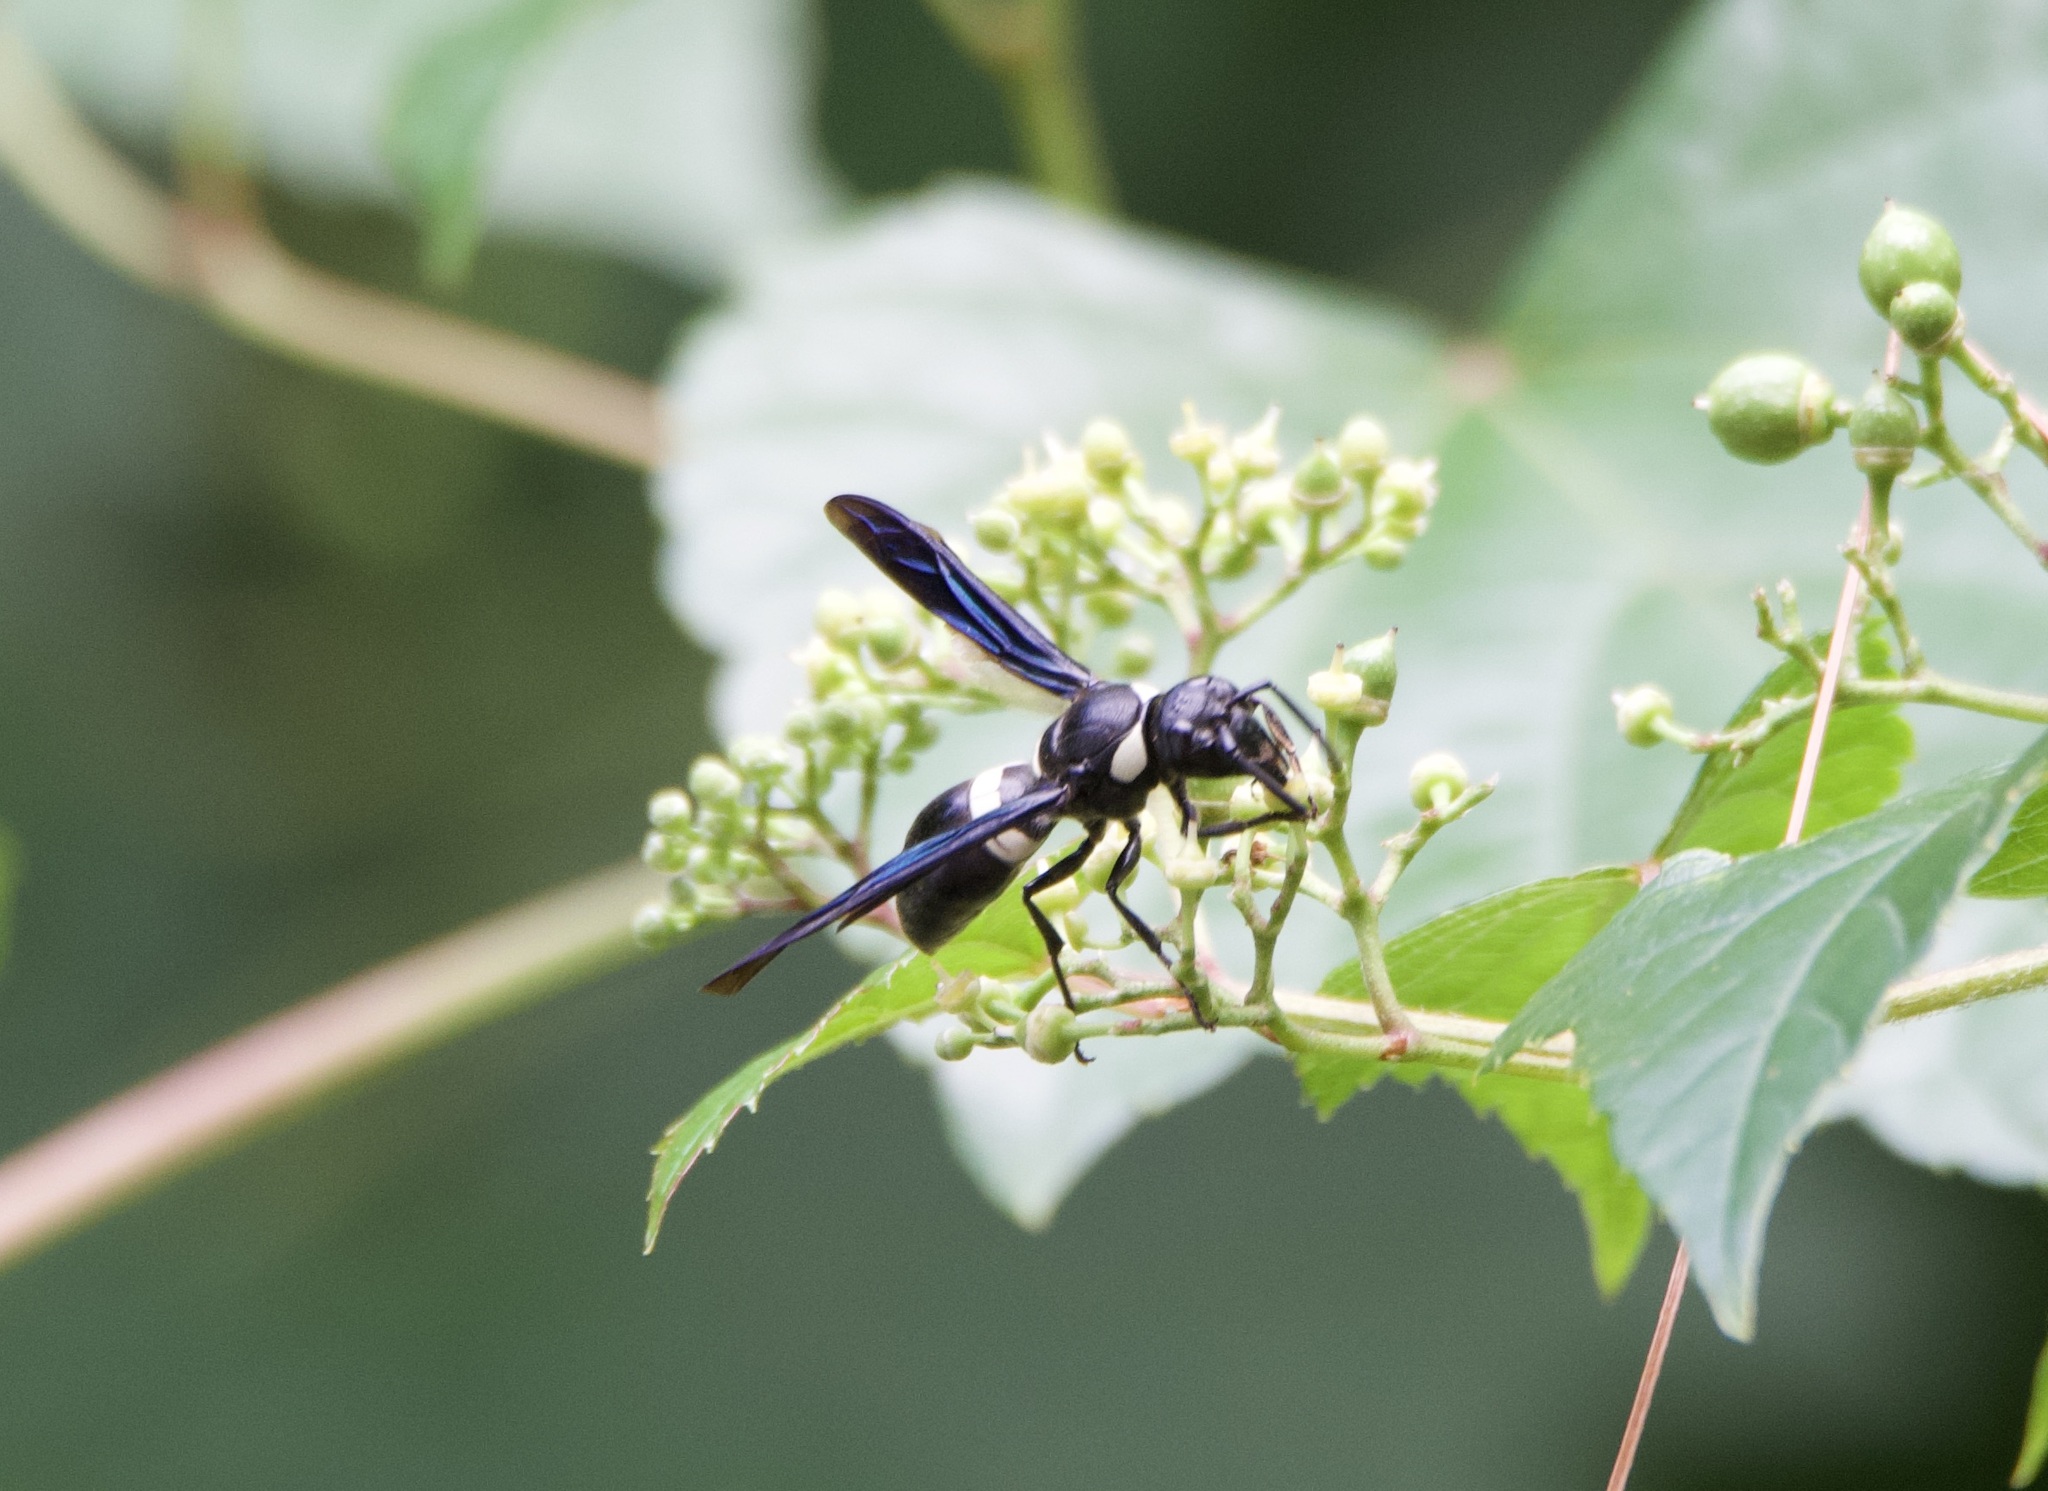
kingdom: Animalia
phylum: Arthropoda
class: Insecta
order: Hymenoptera
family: Eumenidae
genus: Monobia
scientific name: Monobia quadridens
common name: Four-toothed mason wasp
